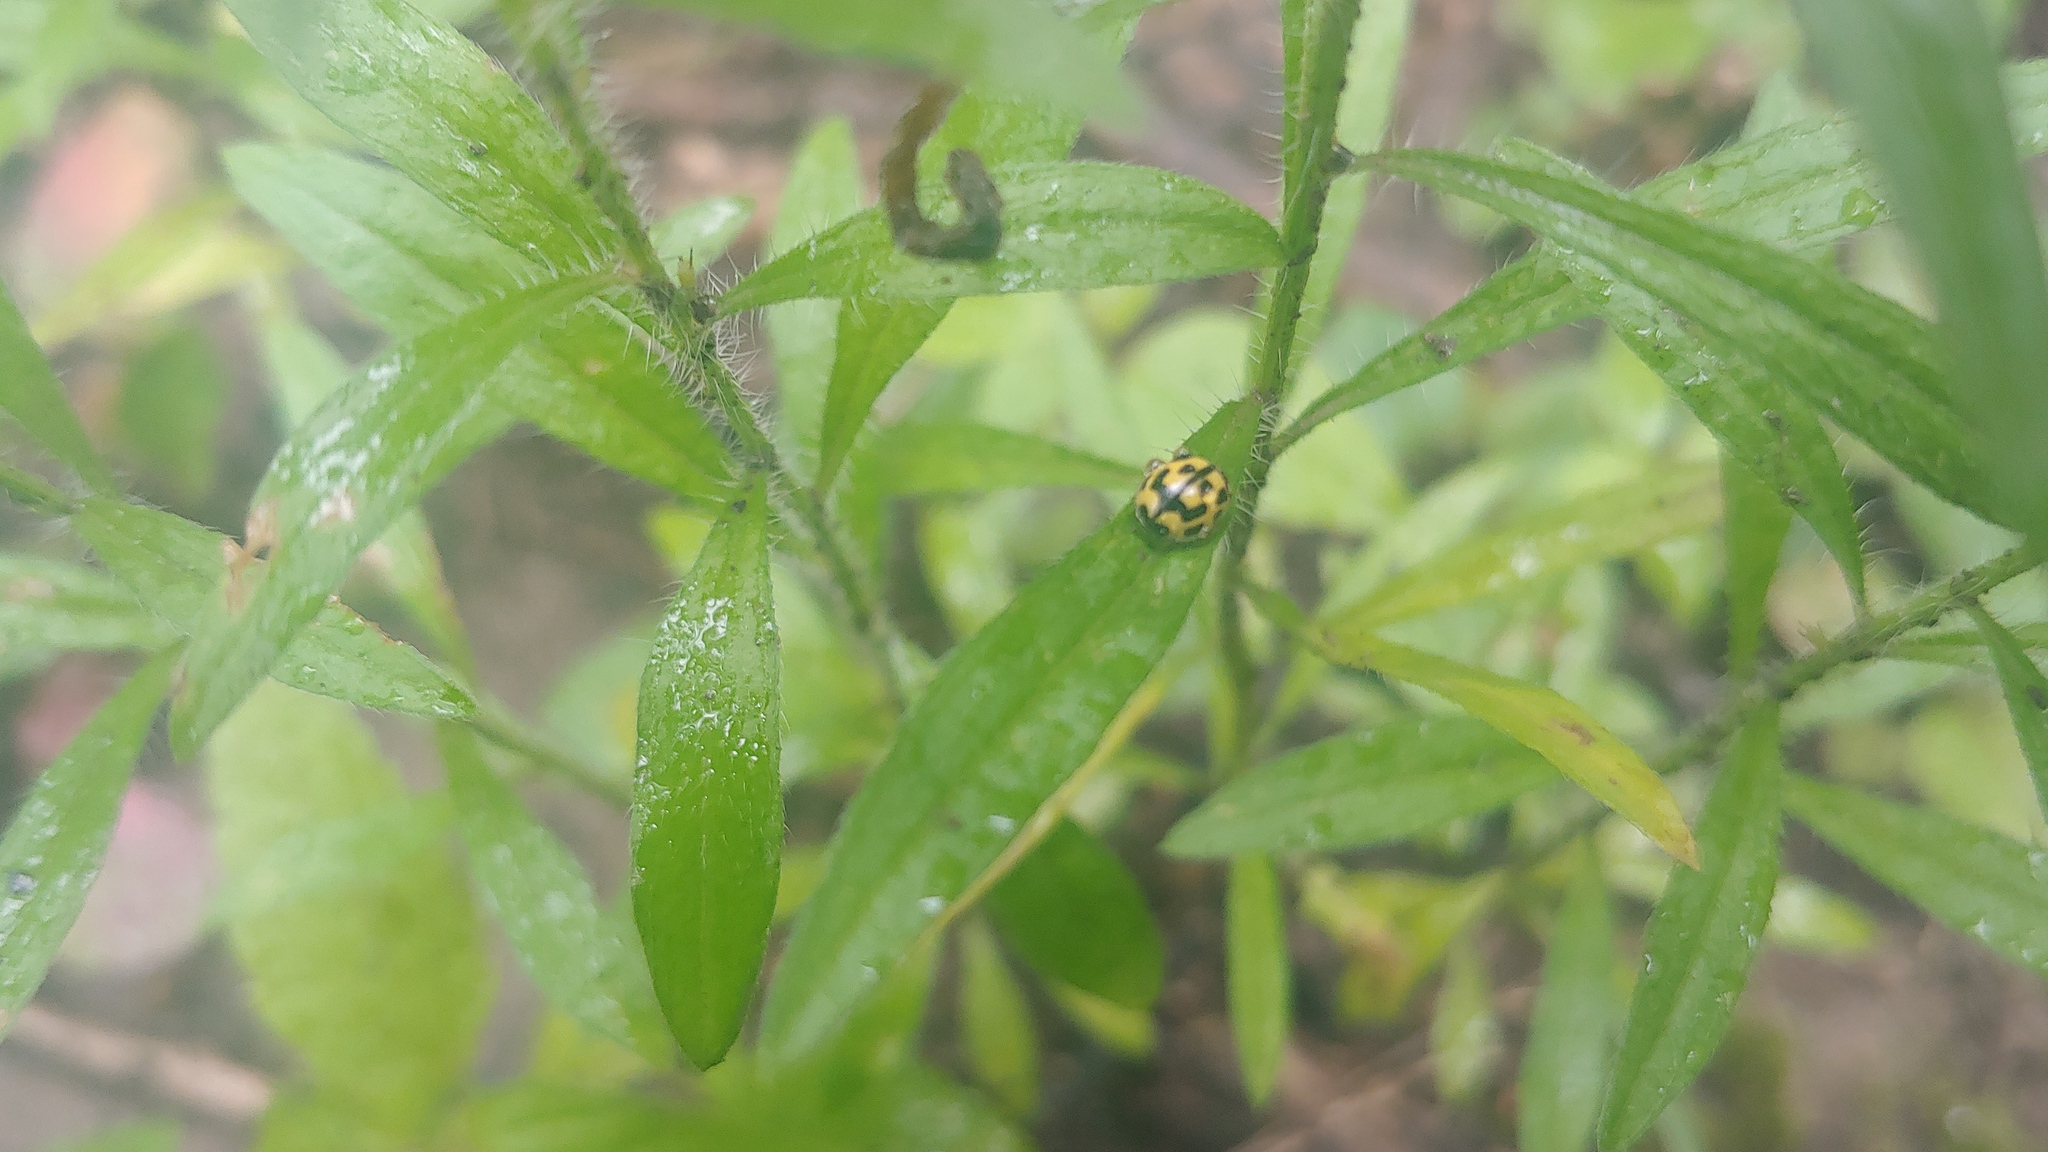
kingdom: Animalia
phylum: Arthropoda
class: Insecta
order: Coleoptera
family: Coccinellidae
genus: Propylaea
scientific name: Propylaea quatuordecimpunctata
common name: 14-spotted ladybird beetle
